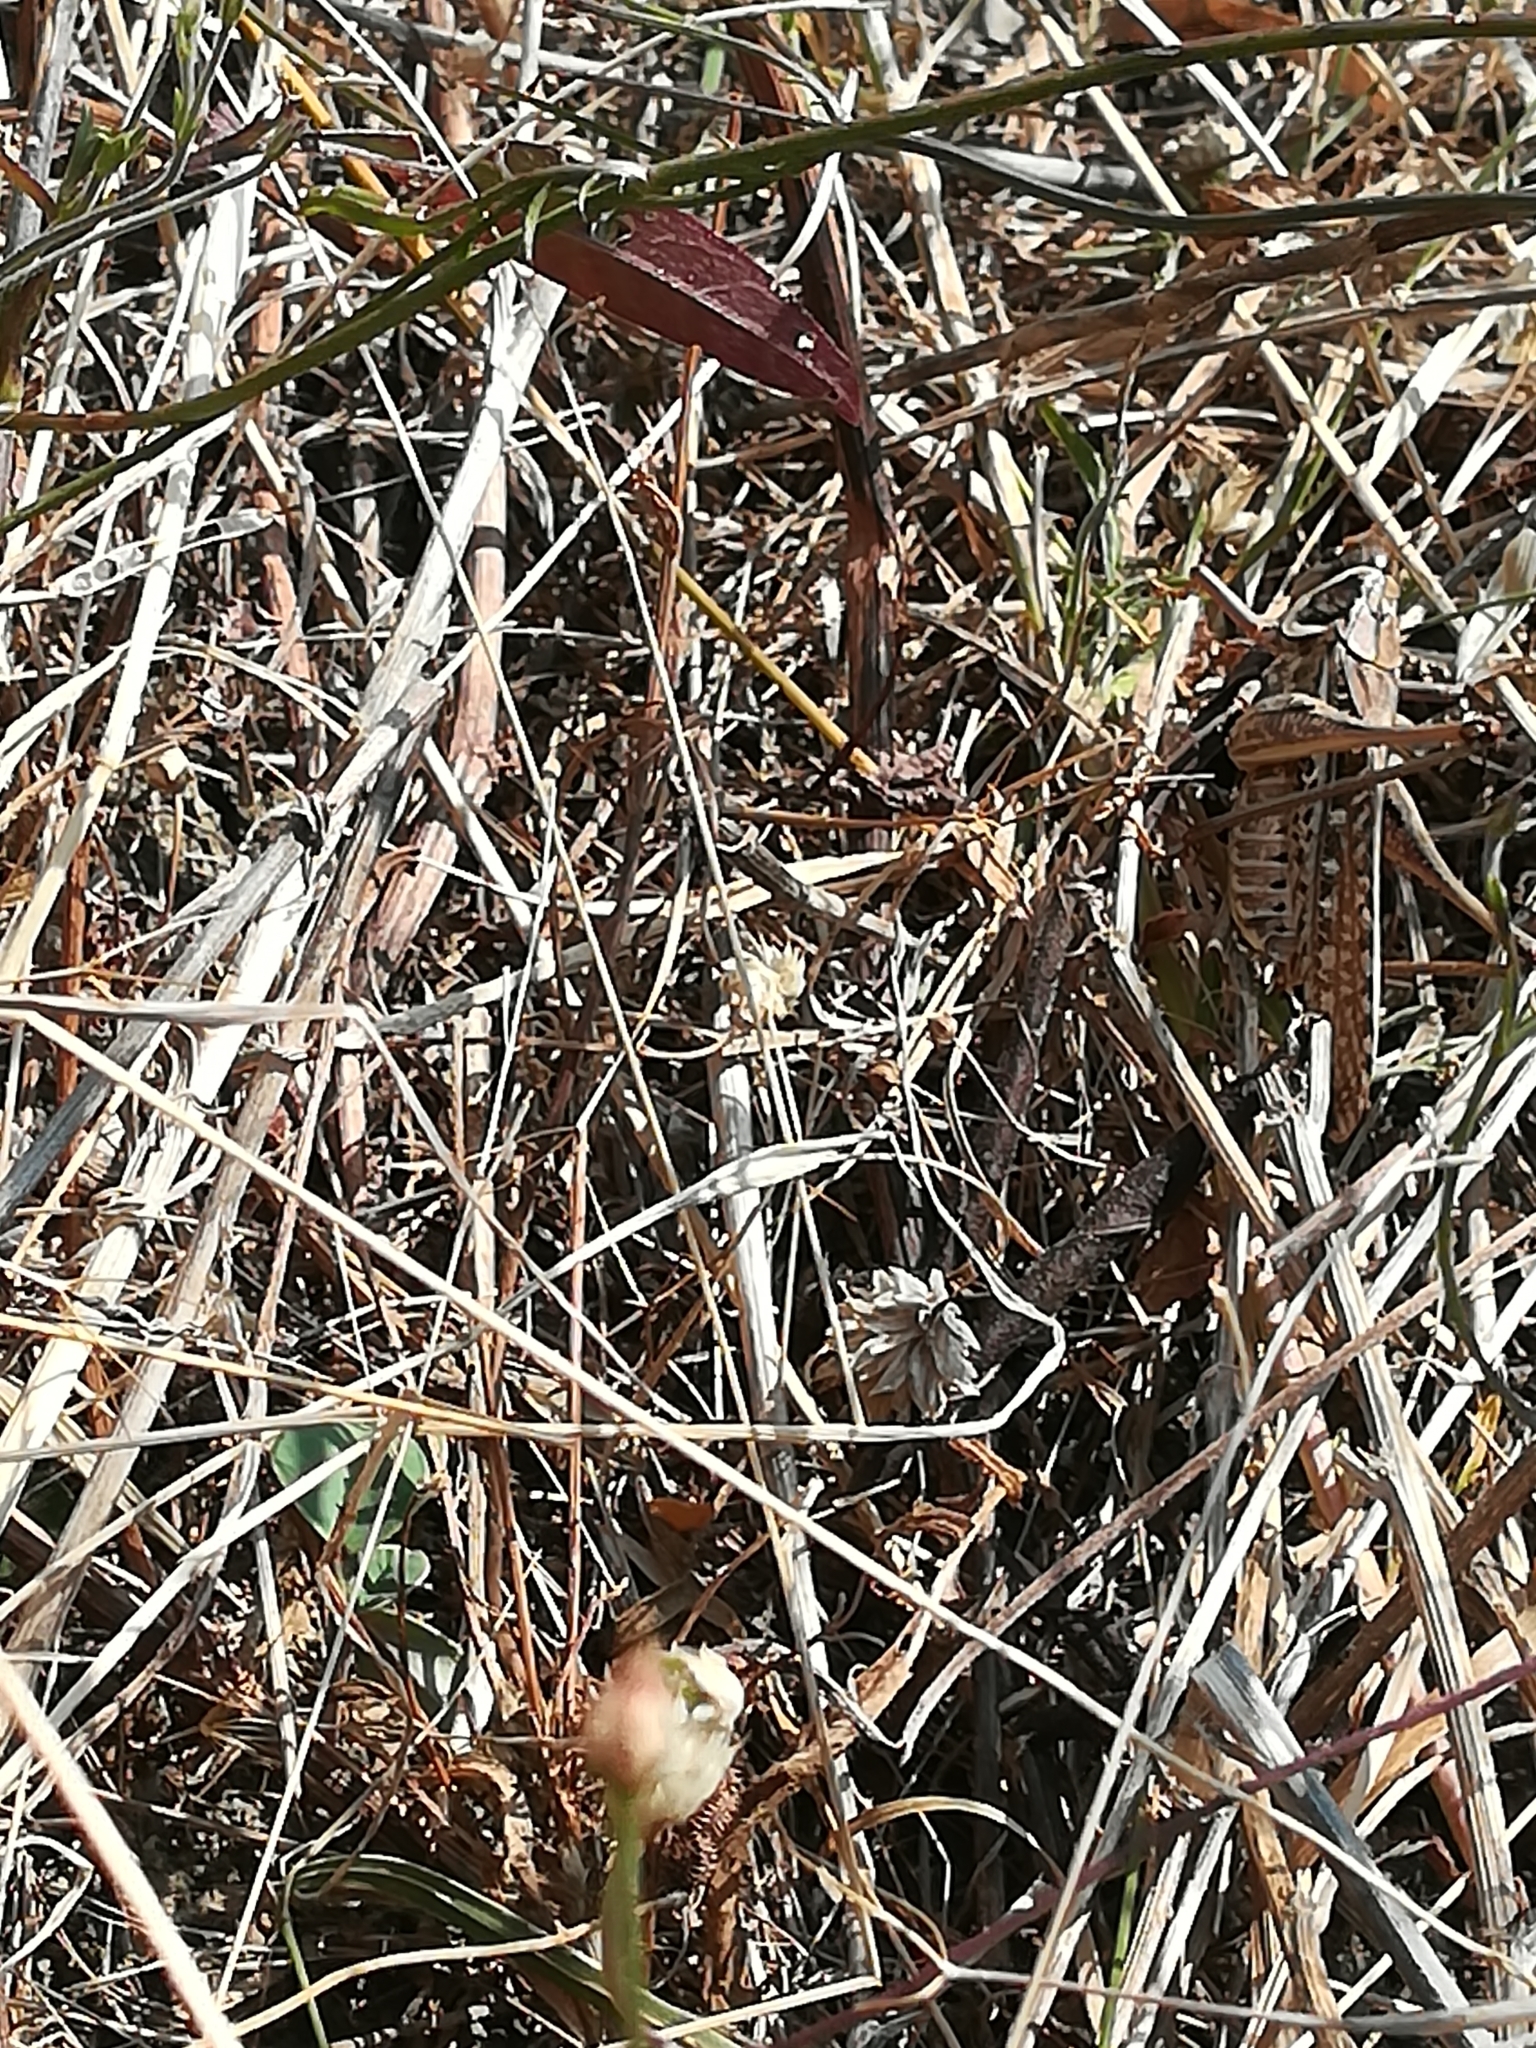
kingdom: Animalia
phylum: Arthropoda
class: Insecta
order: Orthoptera
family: Tettigoniidae
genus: Decticus
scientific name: Decticus albifrons
